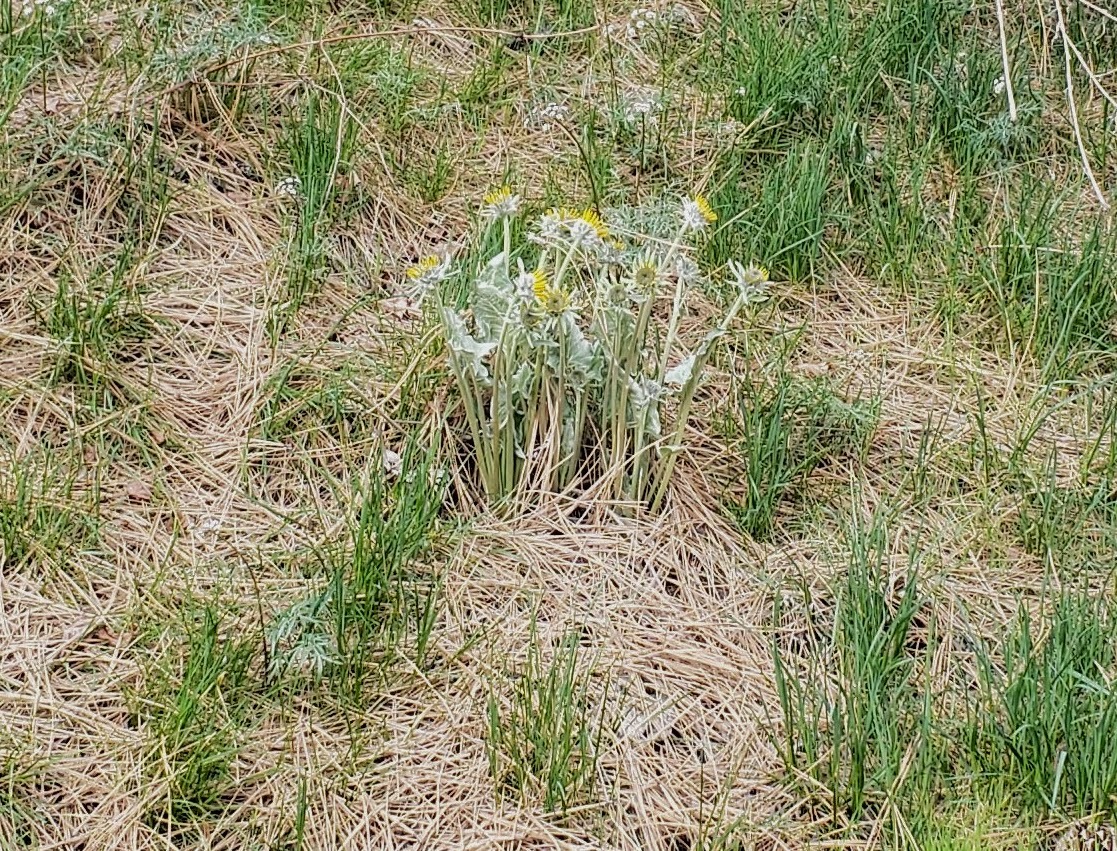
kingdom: Plantae
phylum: Tracheophyta
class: Magnoliopsida
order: Asterales
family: Asteraceae
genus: Wyethia
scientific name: Wyethia sagittata
